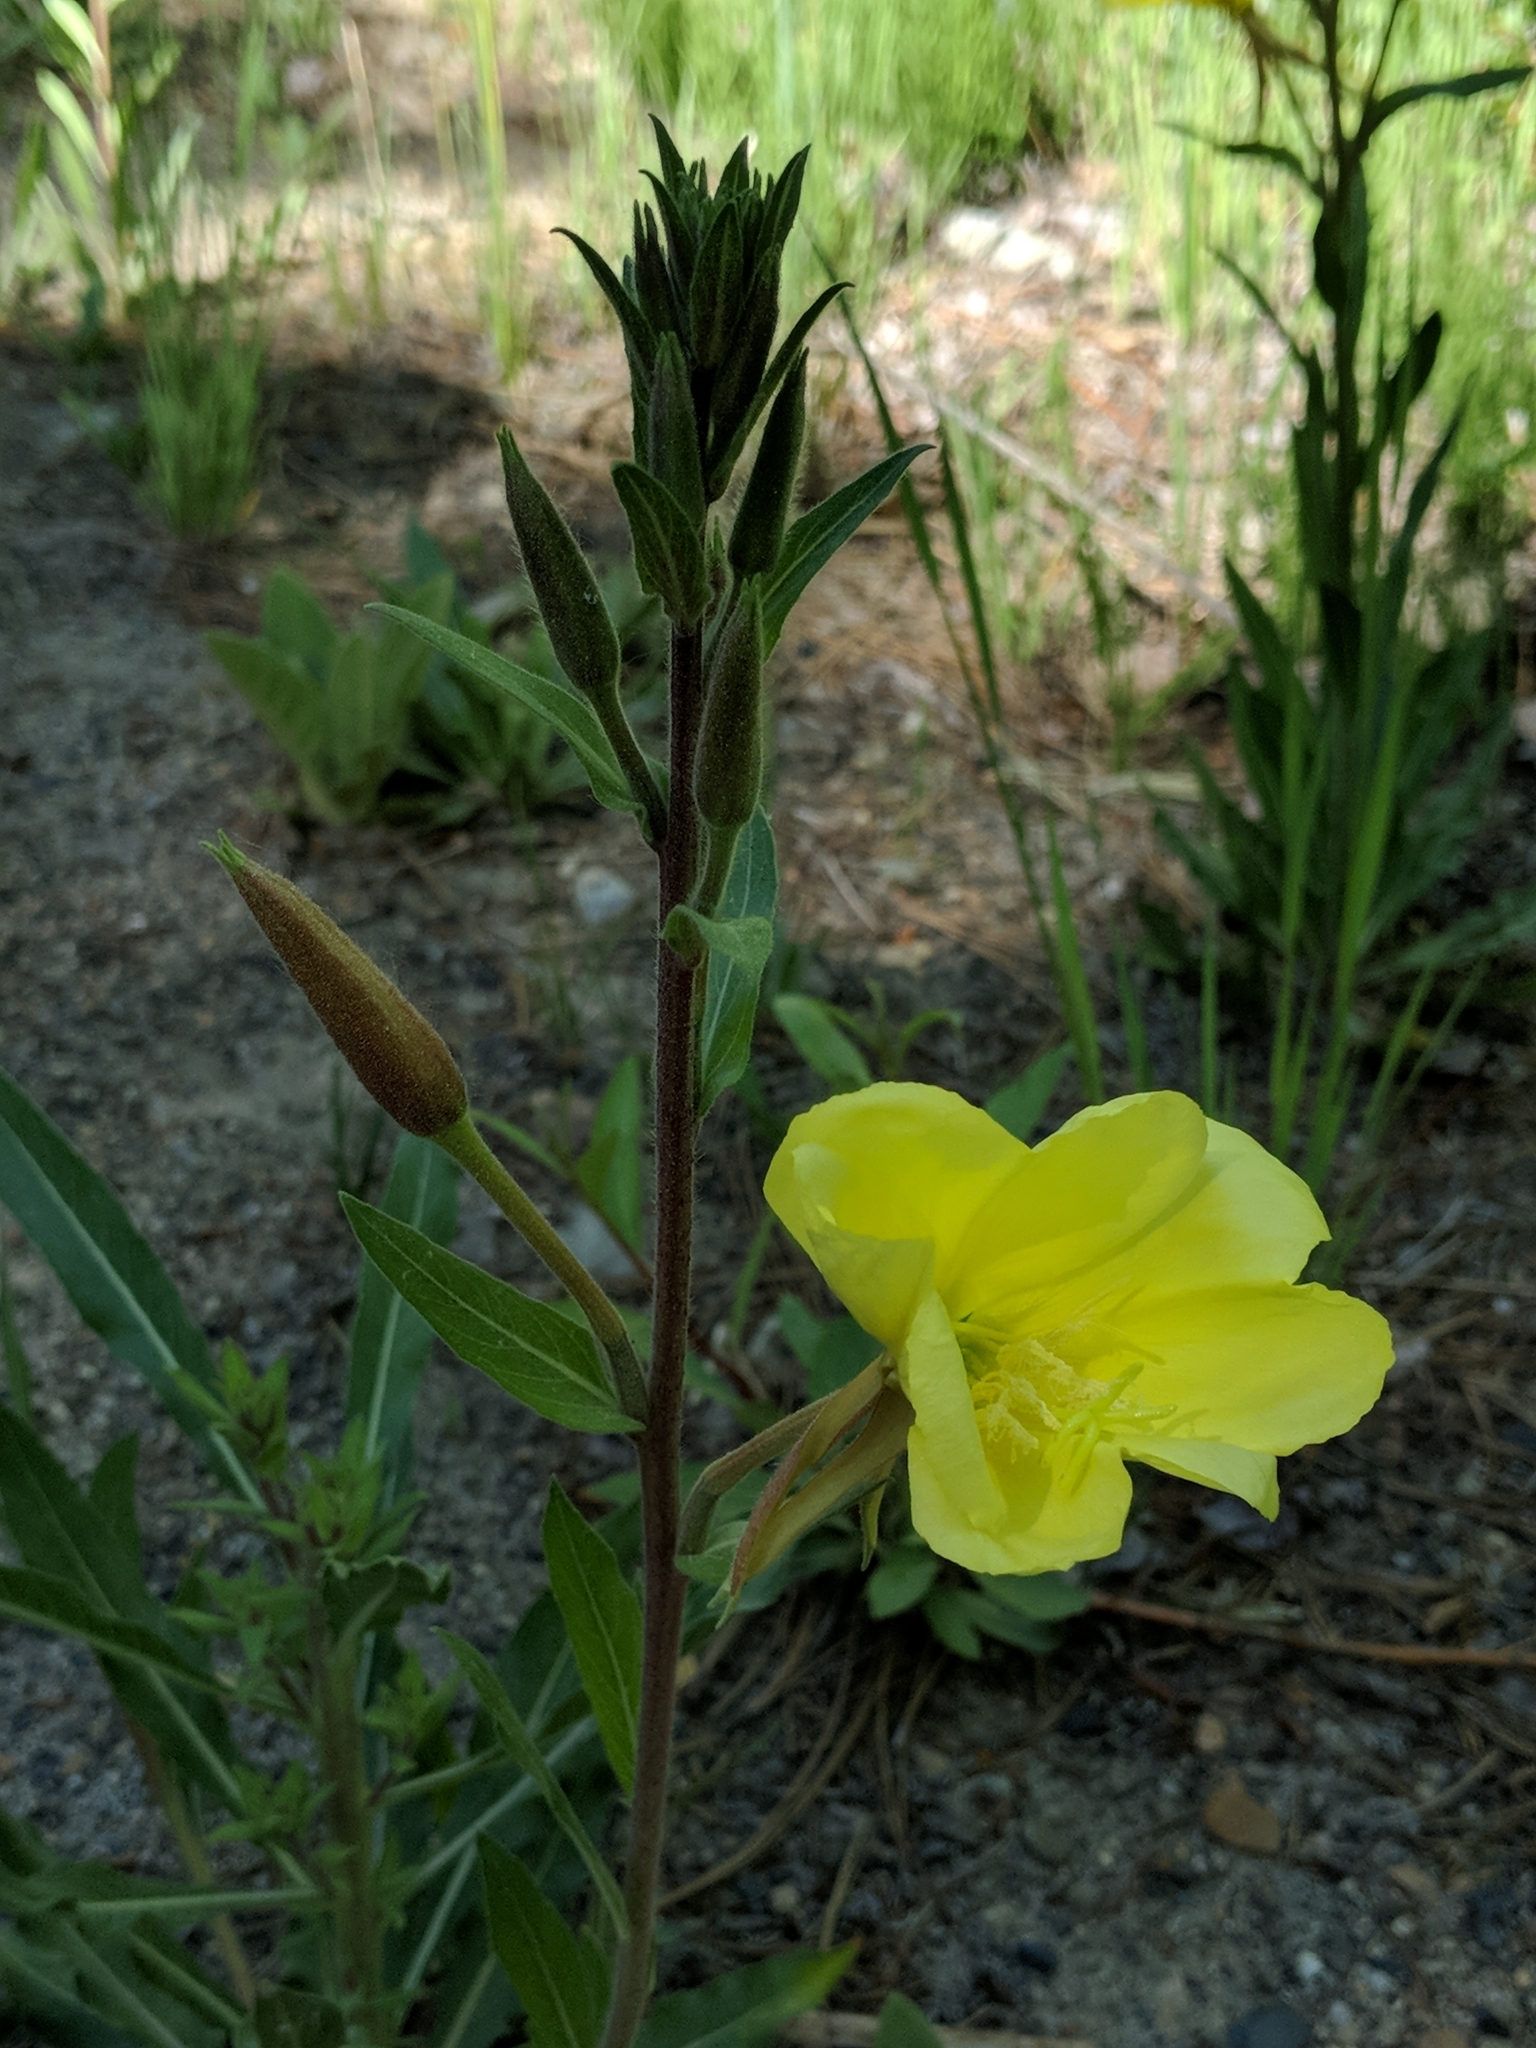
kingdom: Plantae
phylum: Tracheophyta
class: Magnoliopsida
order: Myrtales
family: Onagraceae
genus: Oenothera
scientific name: Oenothera elata
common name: Hooker's evening-primrose
